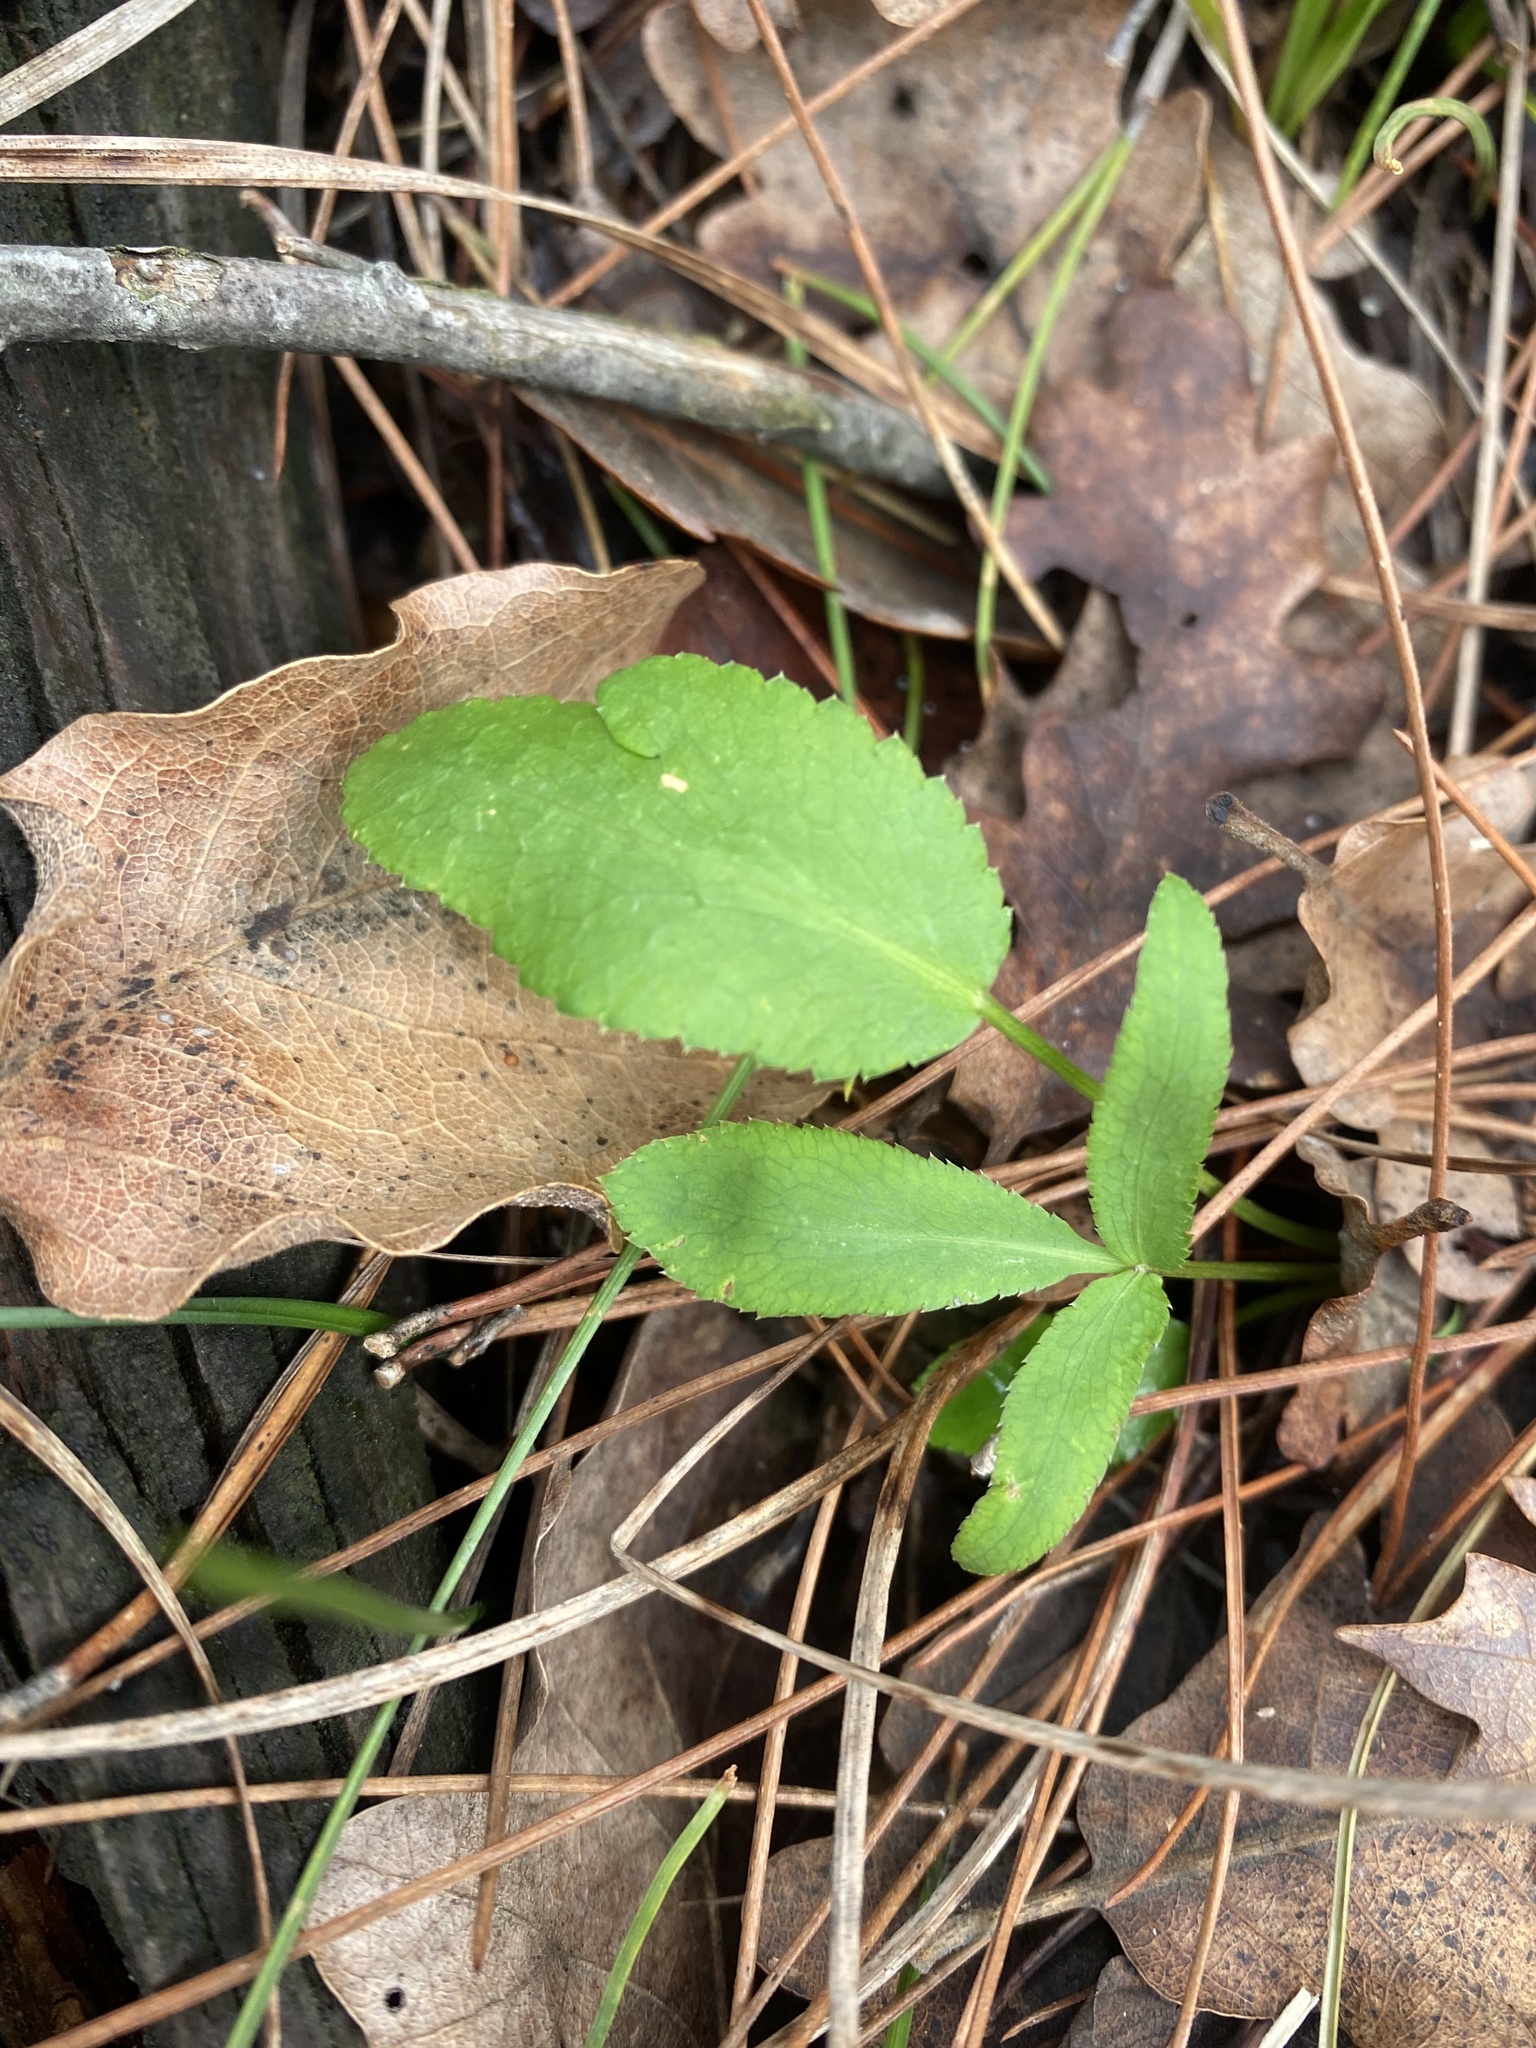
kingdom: Plantae
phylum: Tracheophyta
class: Magnoliopsida
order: Apiales
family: Apiaceae
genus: Eryngium
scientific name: Eryngium campestre
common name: Field eryngo
